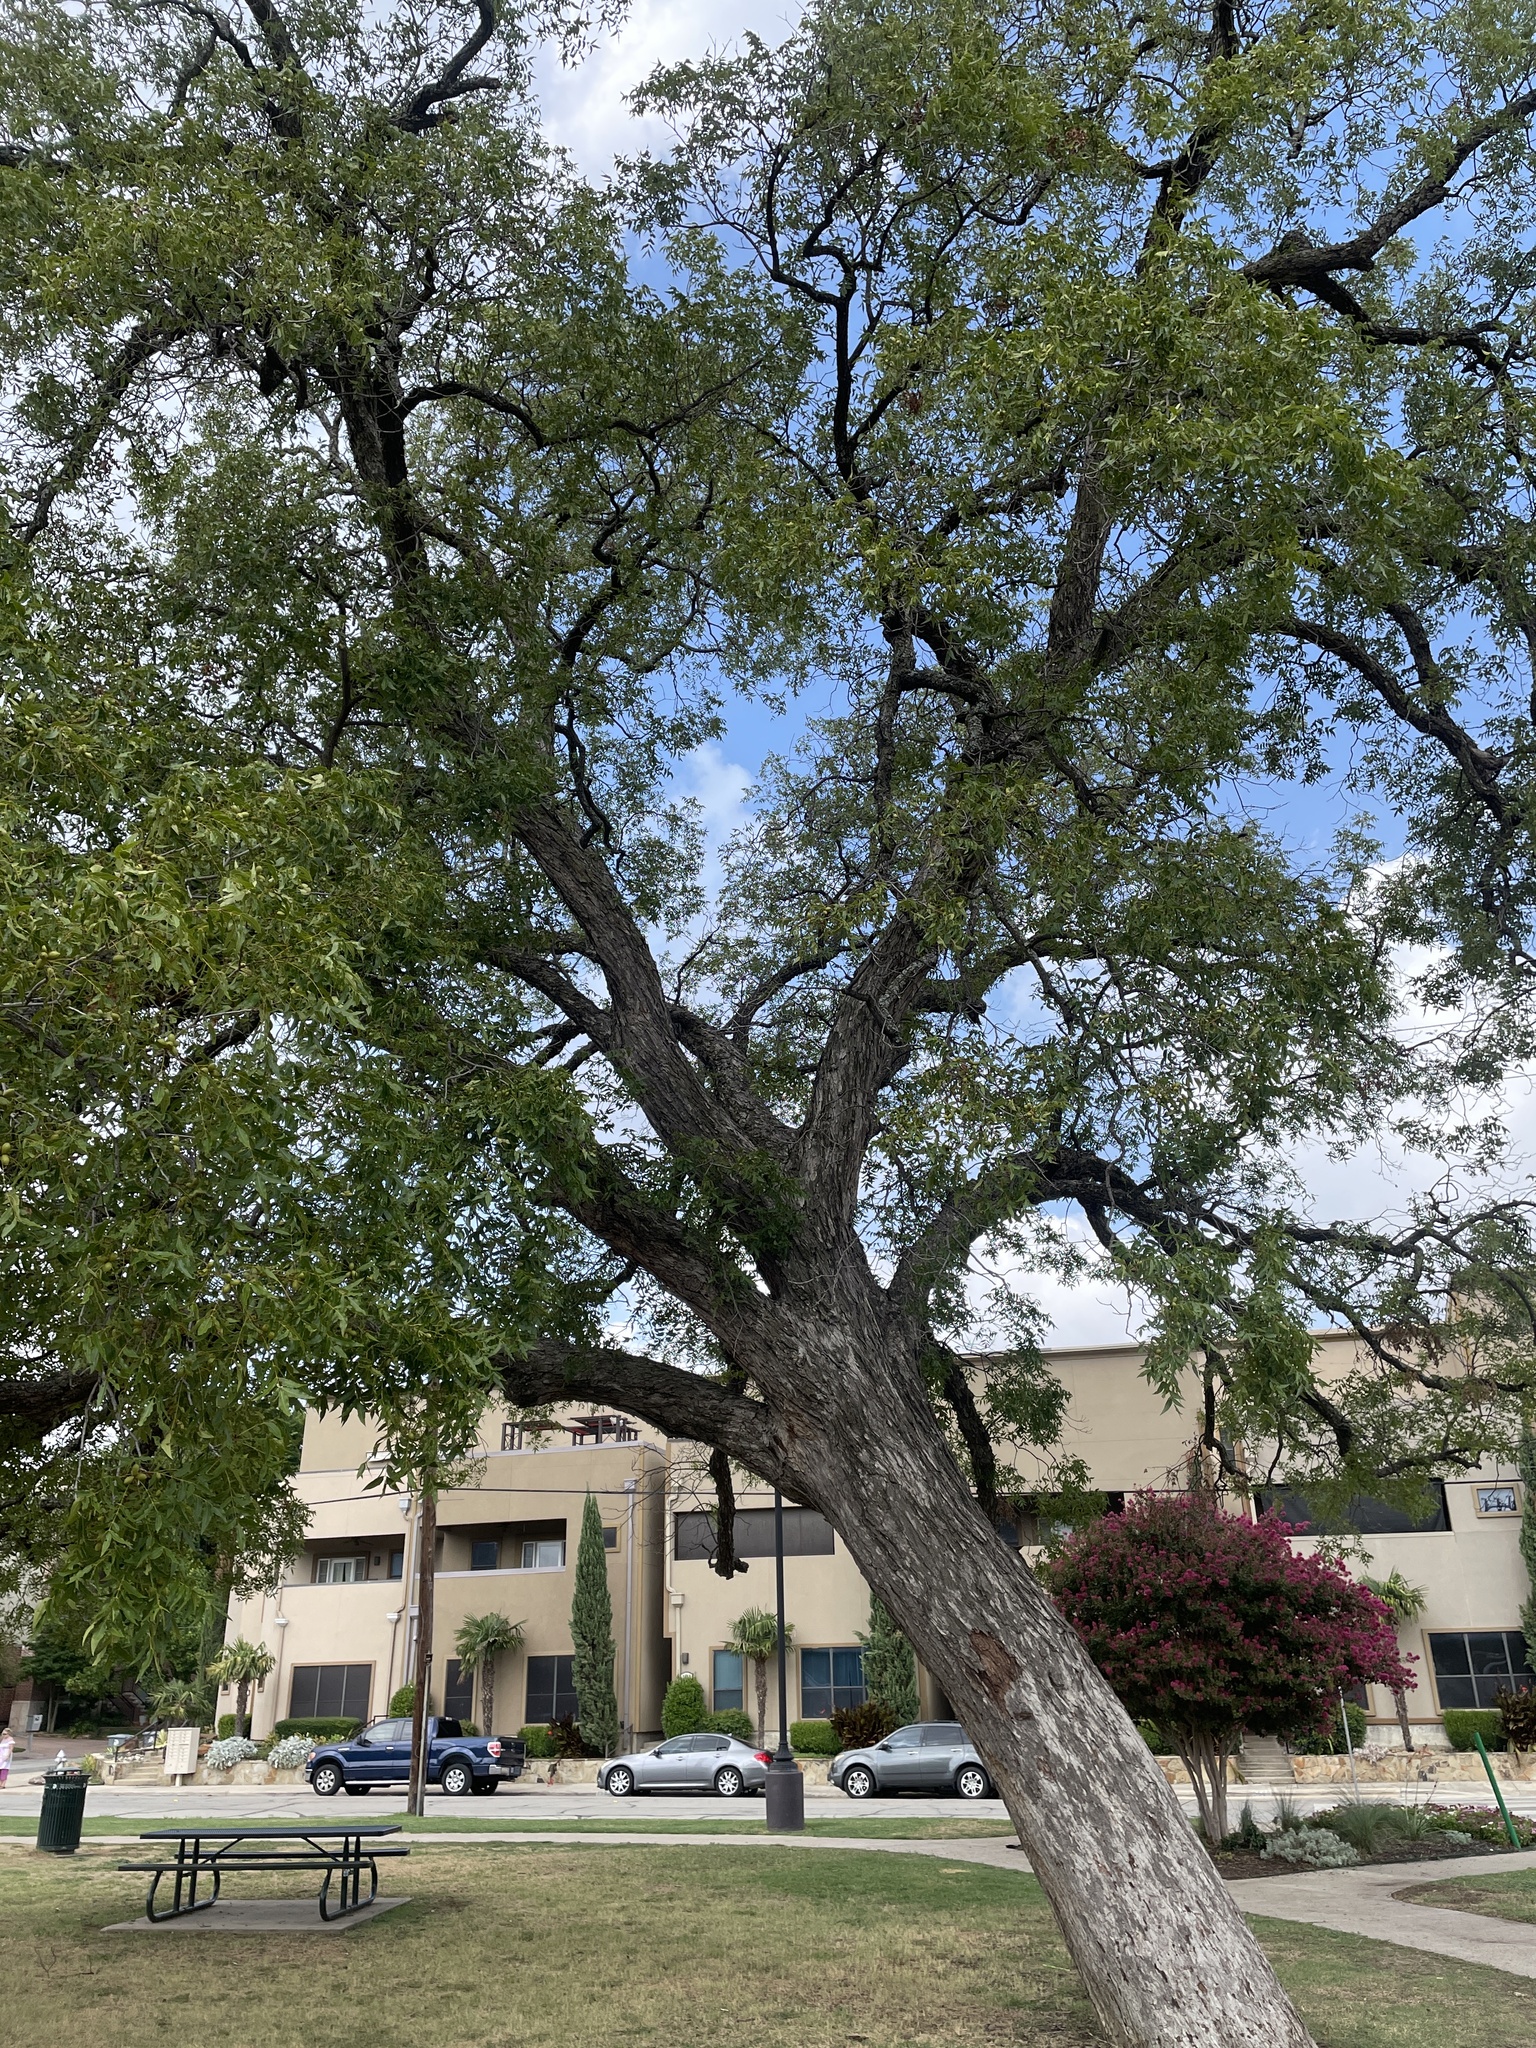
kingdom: Plantae
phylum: Tracheophyta
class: Magnoliopsida
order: Fagales
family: Juglandaceae
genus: Carya
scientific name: Carya illinoinensis
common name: Pecan
